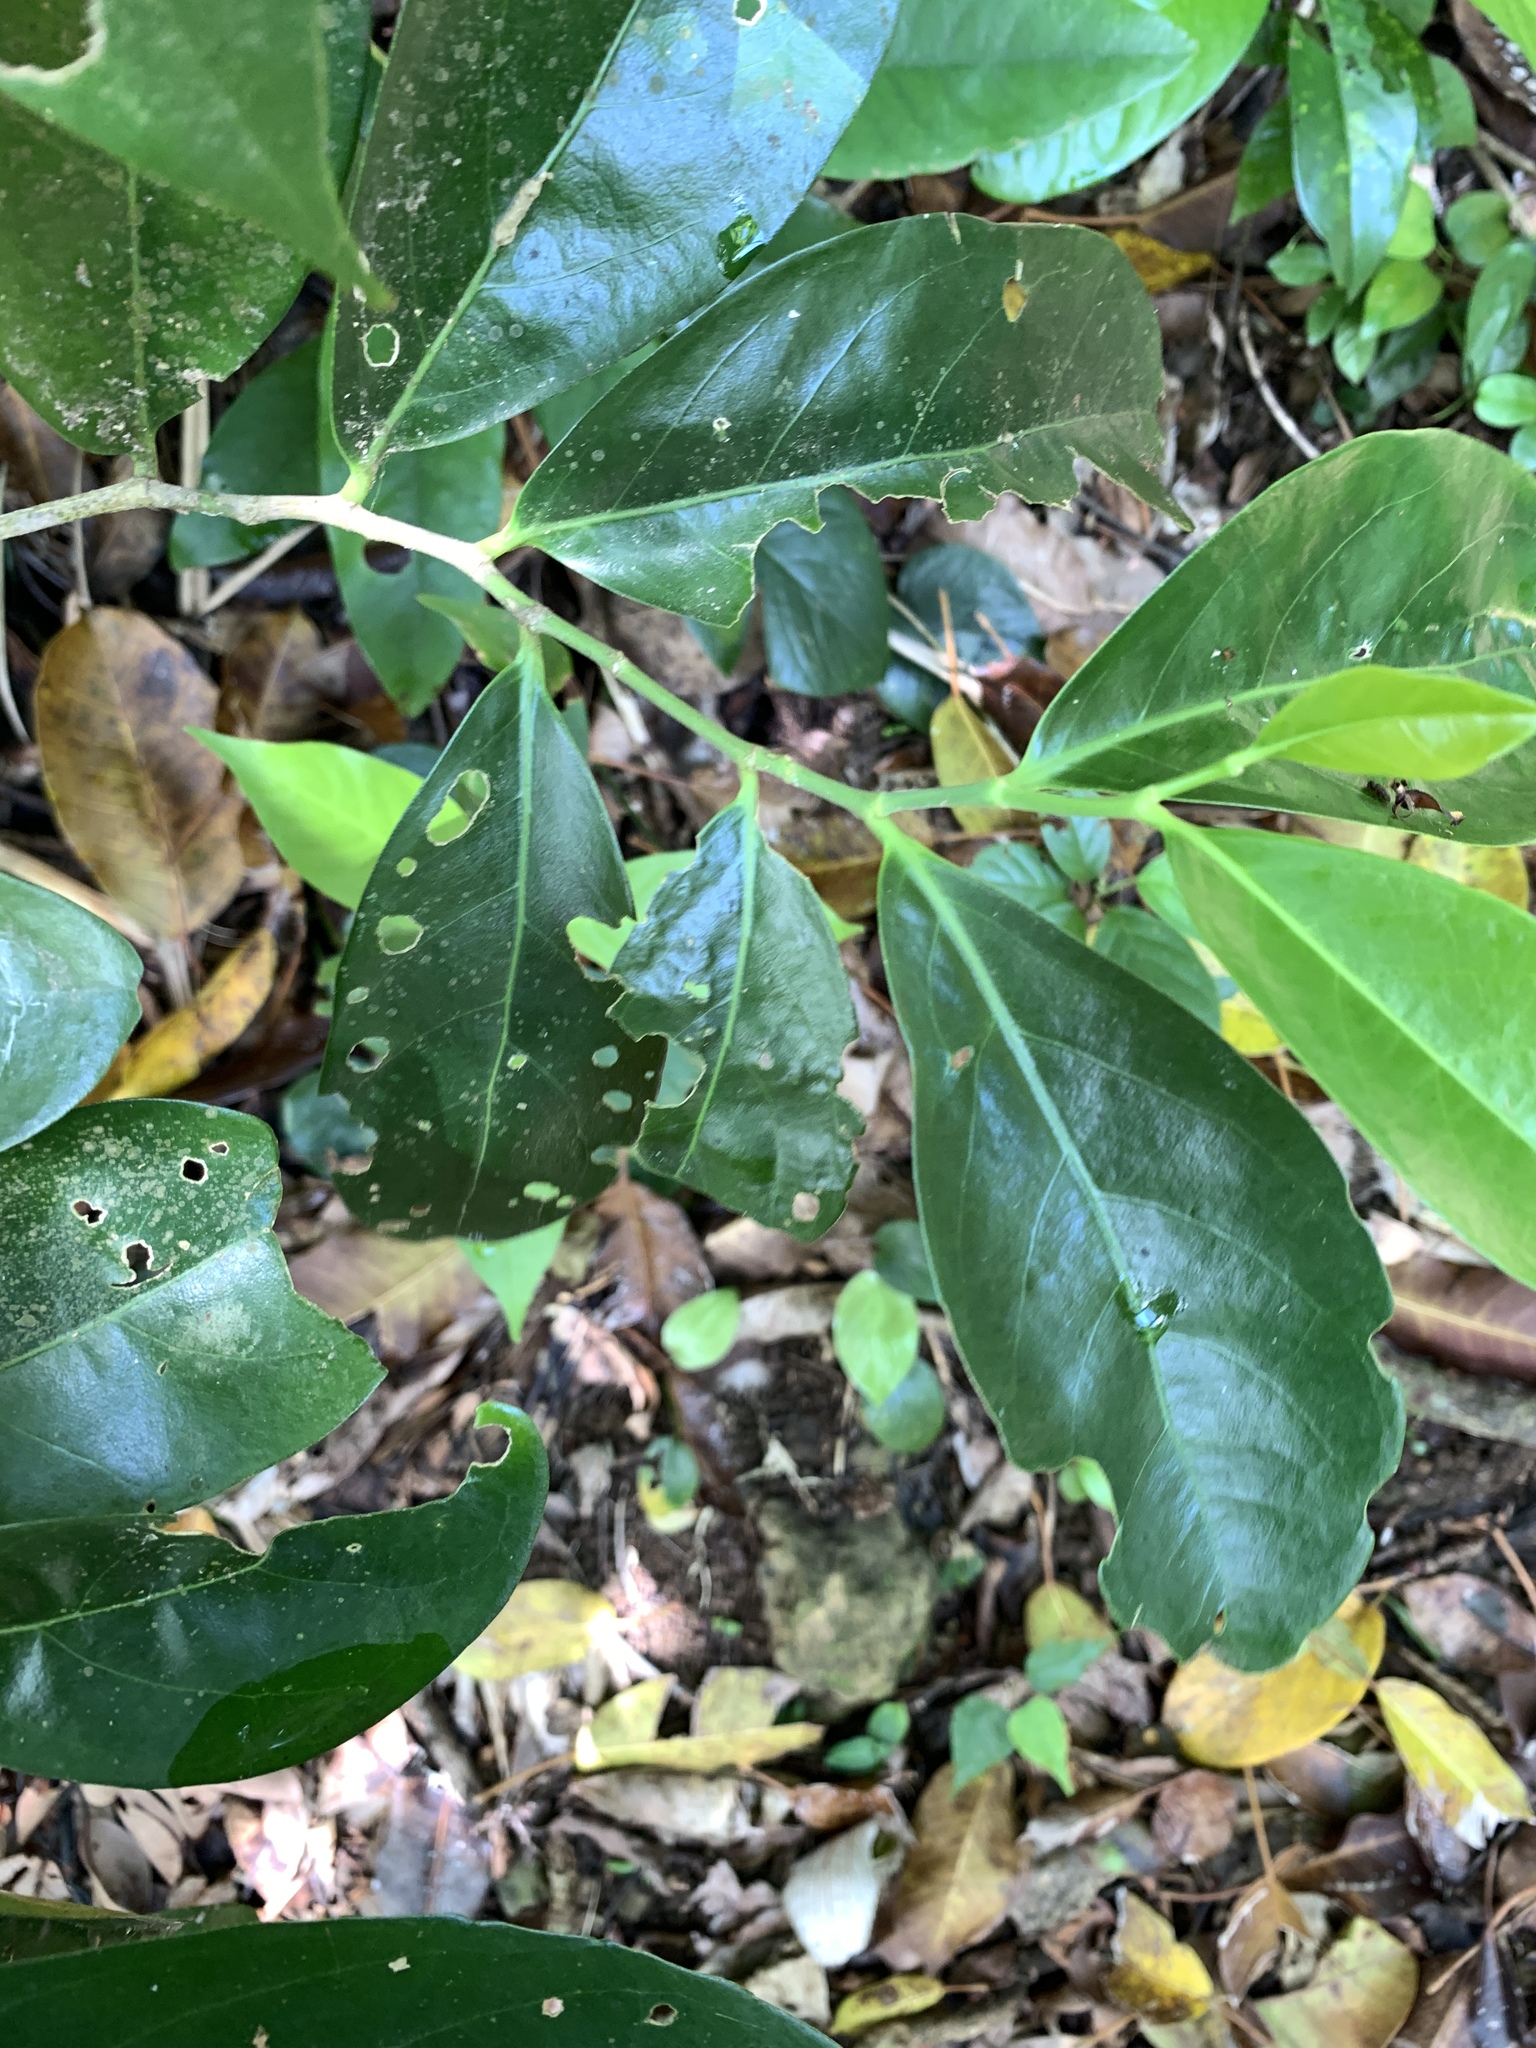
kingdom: Plantae
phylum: Tracheophyta
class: Magnoliopsida
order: Malpighiales
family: Euphorbiaceae
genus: Suregada
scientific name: Suregada aequorea
